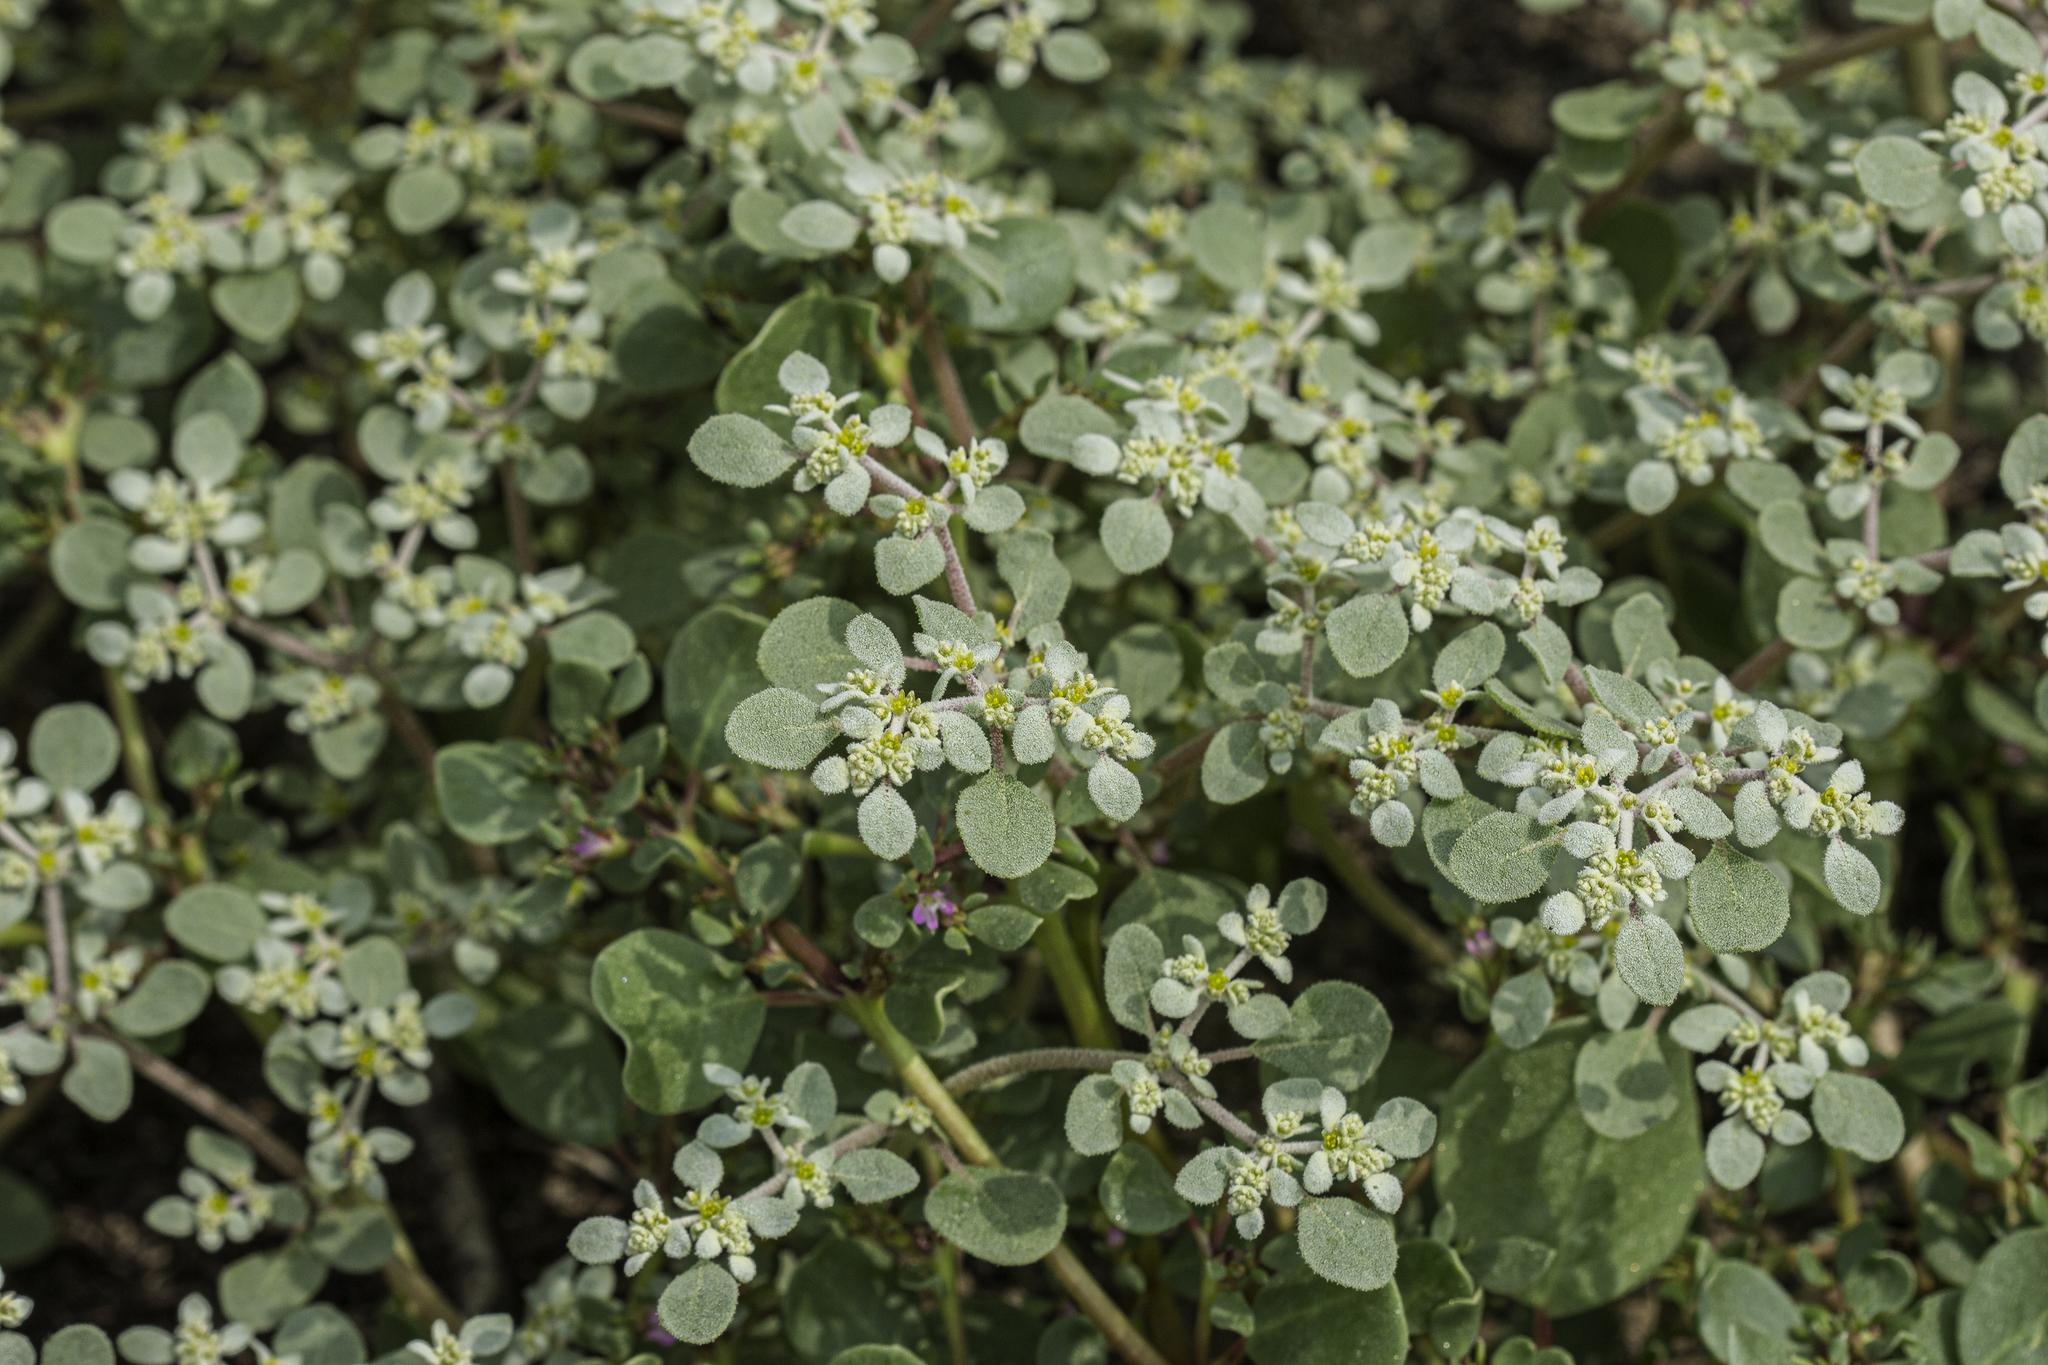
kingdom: Plantae
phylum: Tracheophyta
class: Magnoliopsida
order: Caryophyllales
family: Amaranthaceae
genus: Tidestromia
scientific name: Tidestromia lanuginosa
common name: Woolly tidestromia
